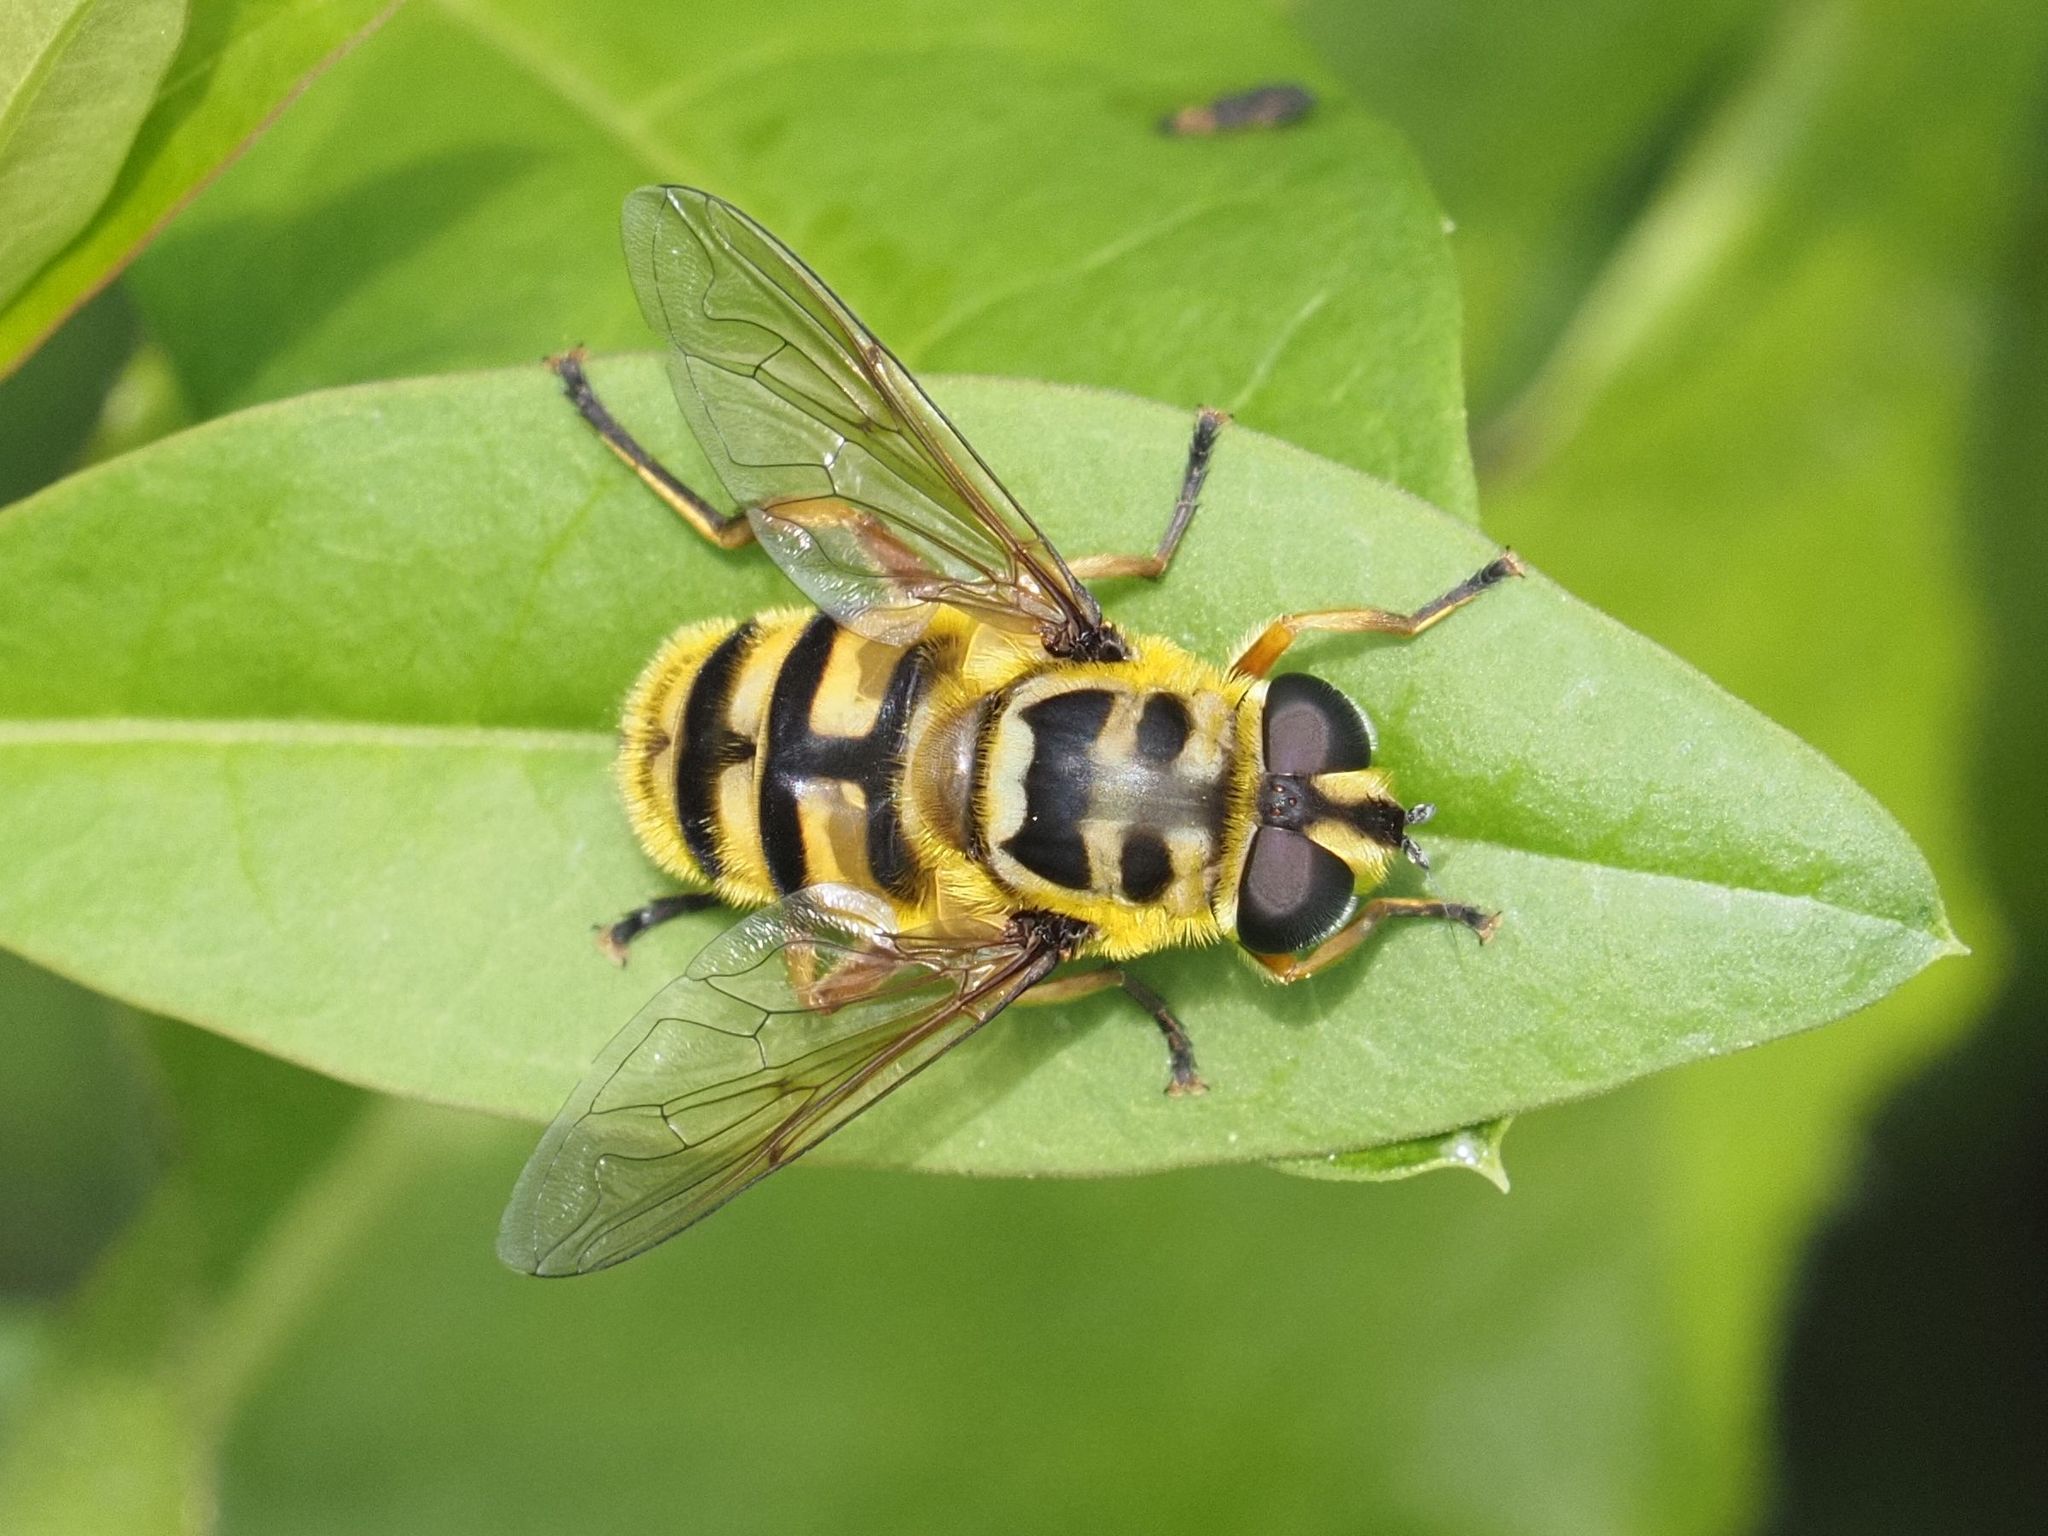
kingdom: Animalia
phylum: Arthropoda
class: Insecta
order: Diptera
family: Syrphidae
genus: Myathropa
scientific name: Myathropa florea
